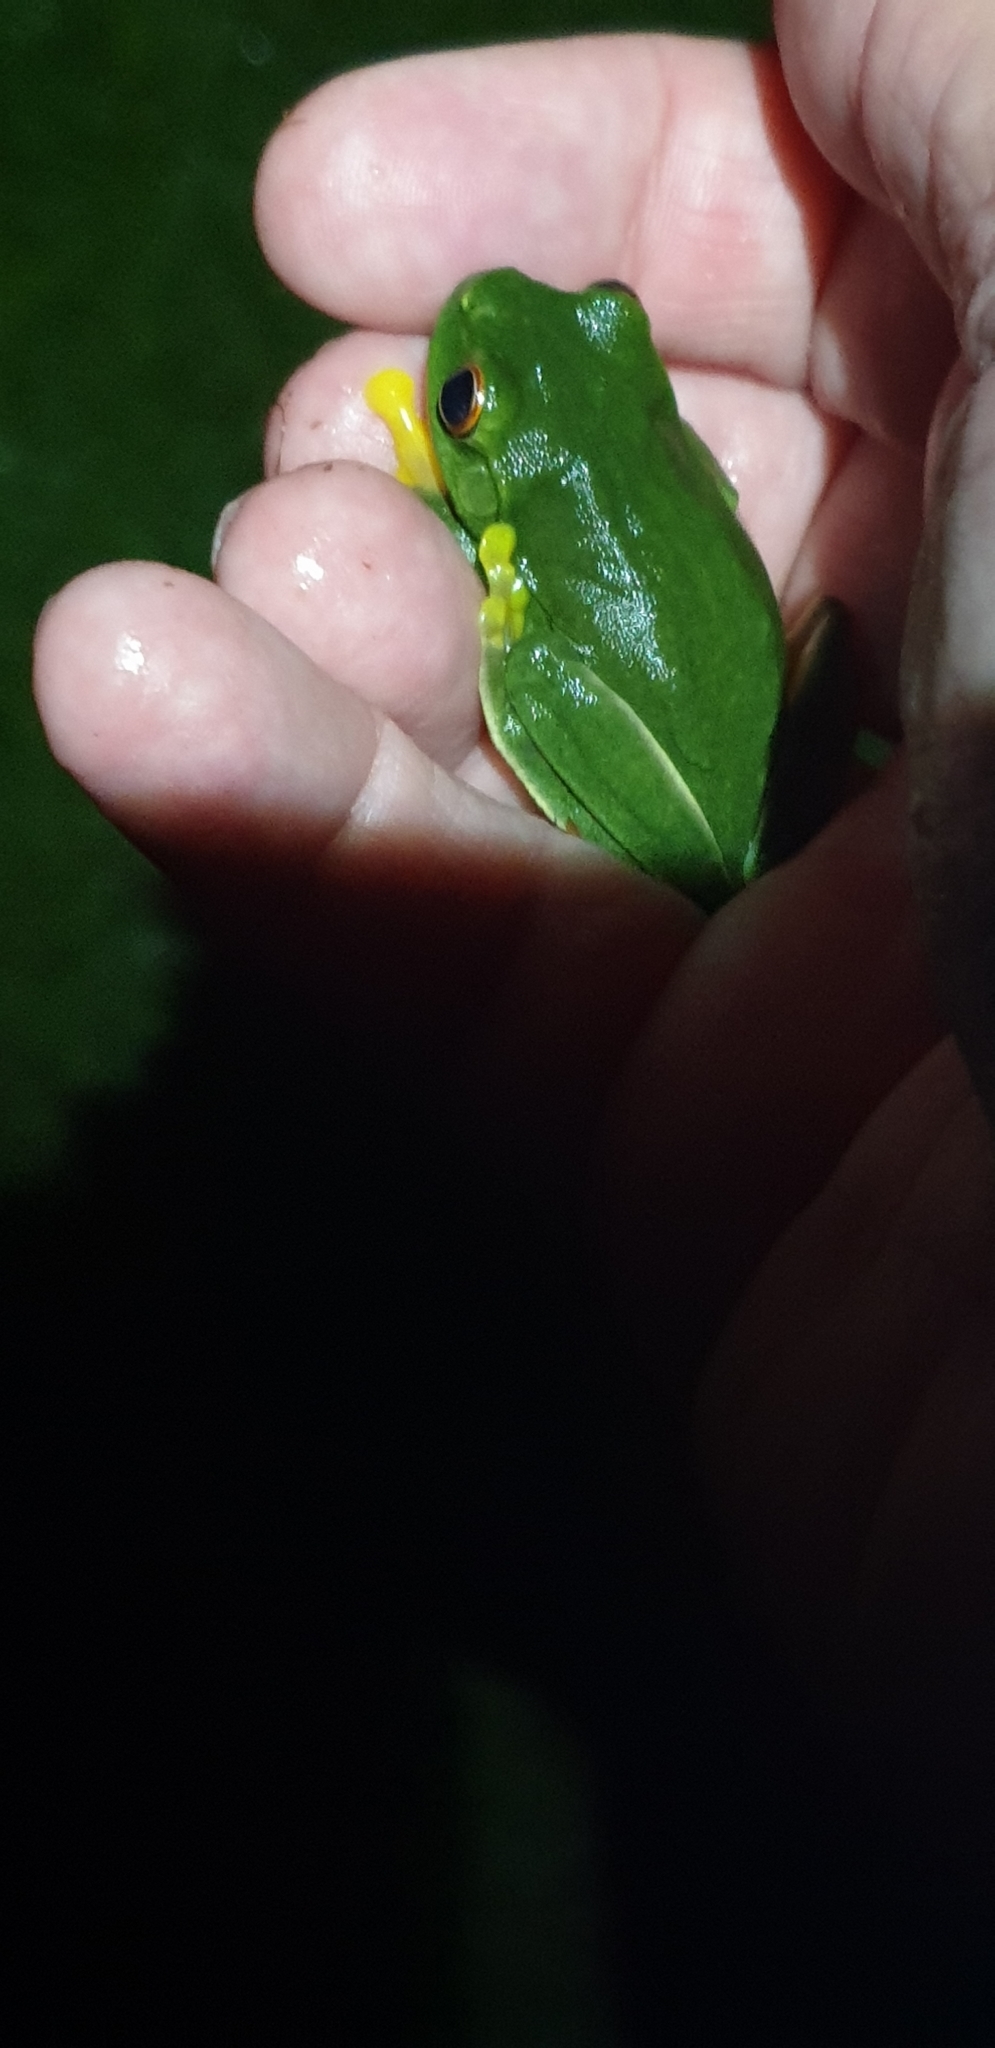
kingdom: Animalia
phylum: Chordata
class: Amphibia
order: Anura
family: Pelodryadidae
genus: Ranoidea
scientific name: Ranoidea gracilenta
